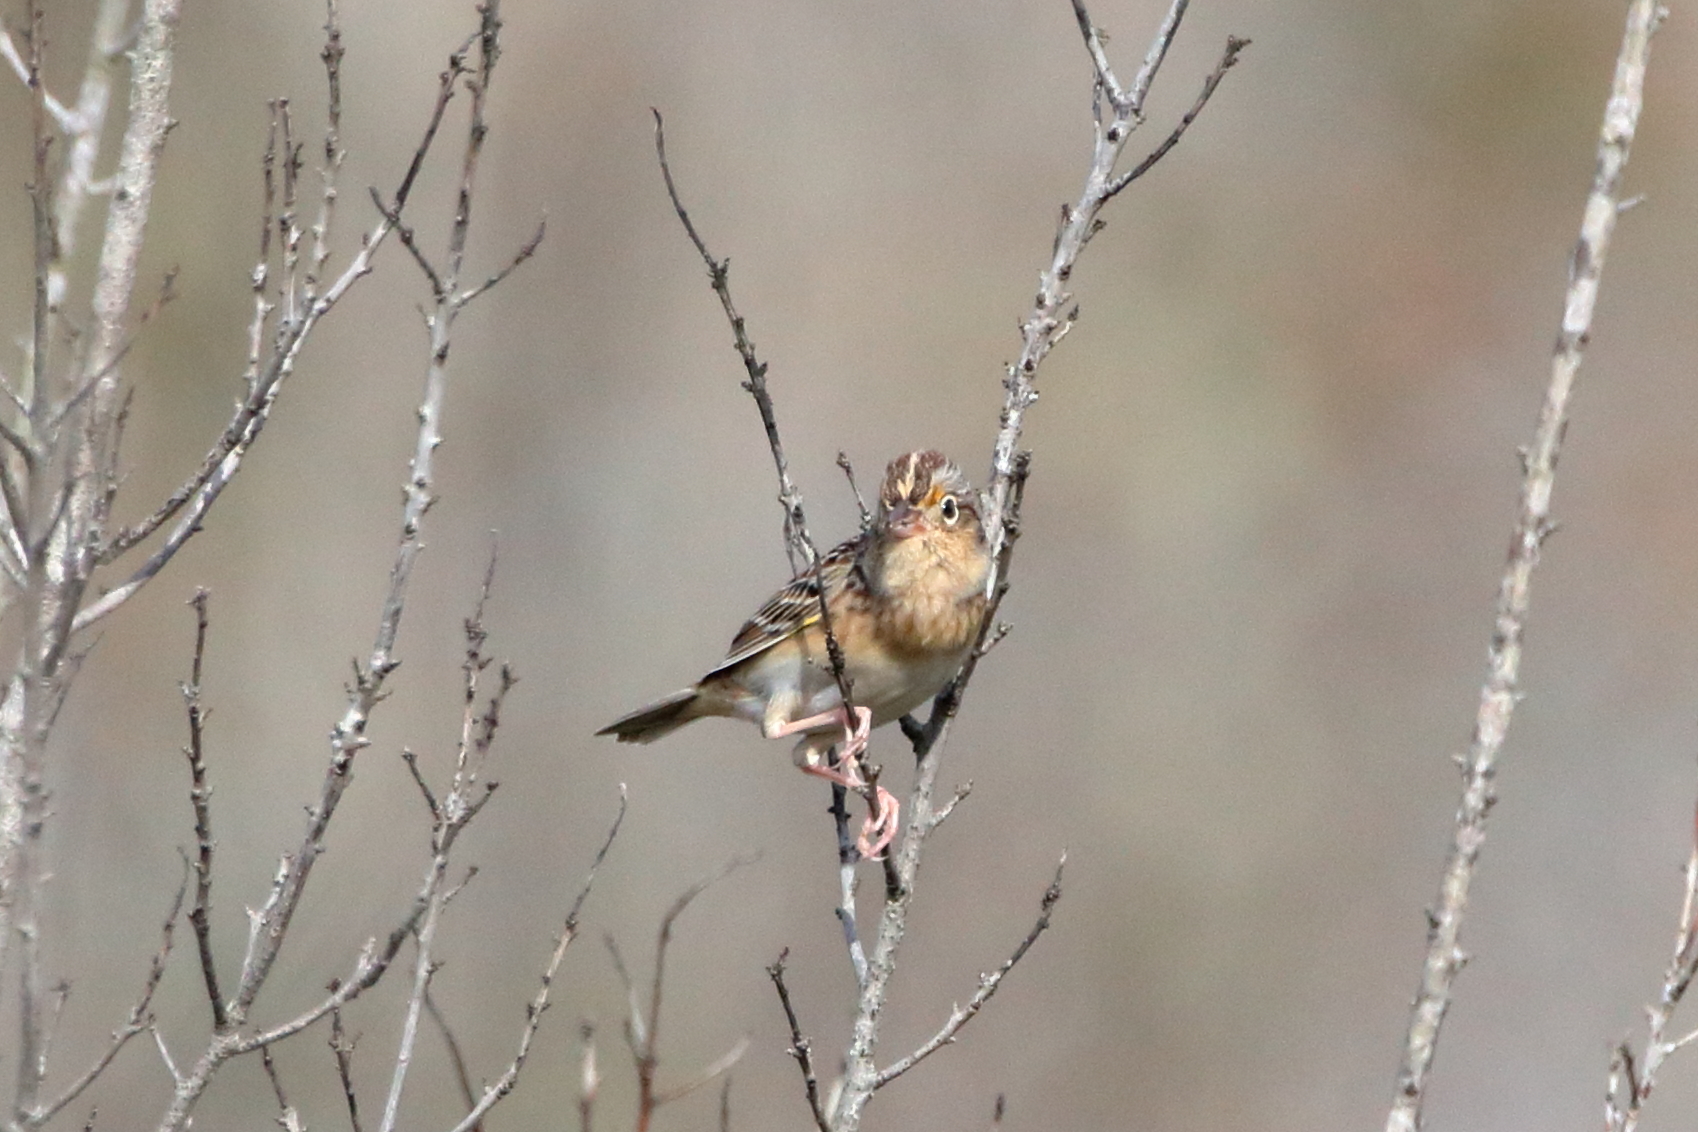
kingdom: Animalia
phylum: Chordata
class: Aves
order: Passeriformes
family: Passerellidae
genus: Ammodramus
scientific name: Ammodramus savannarum
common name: Grasshopper sparrow
